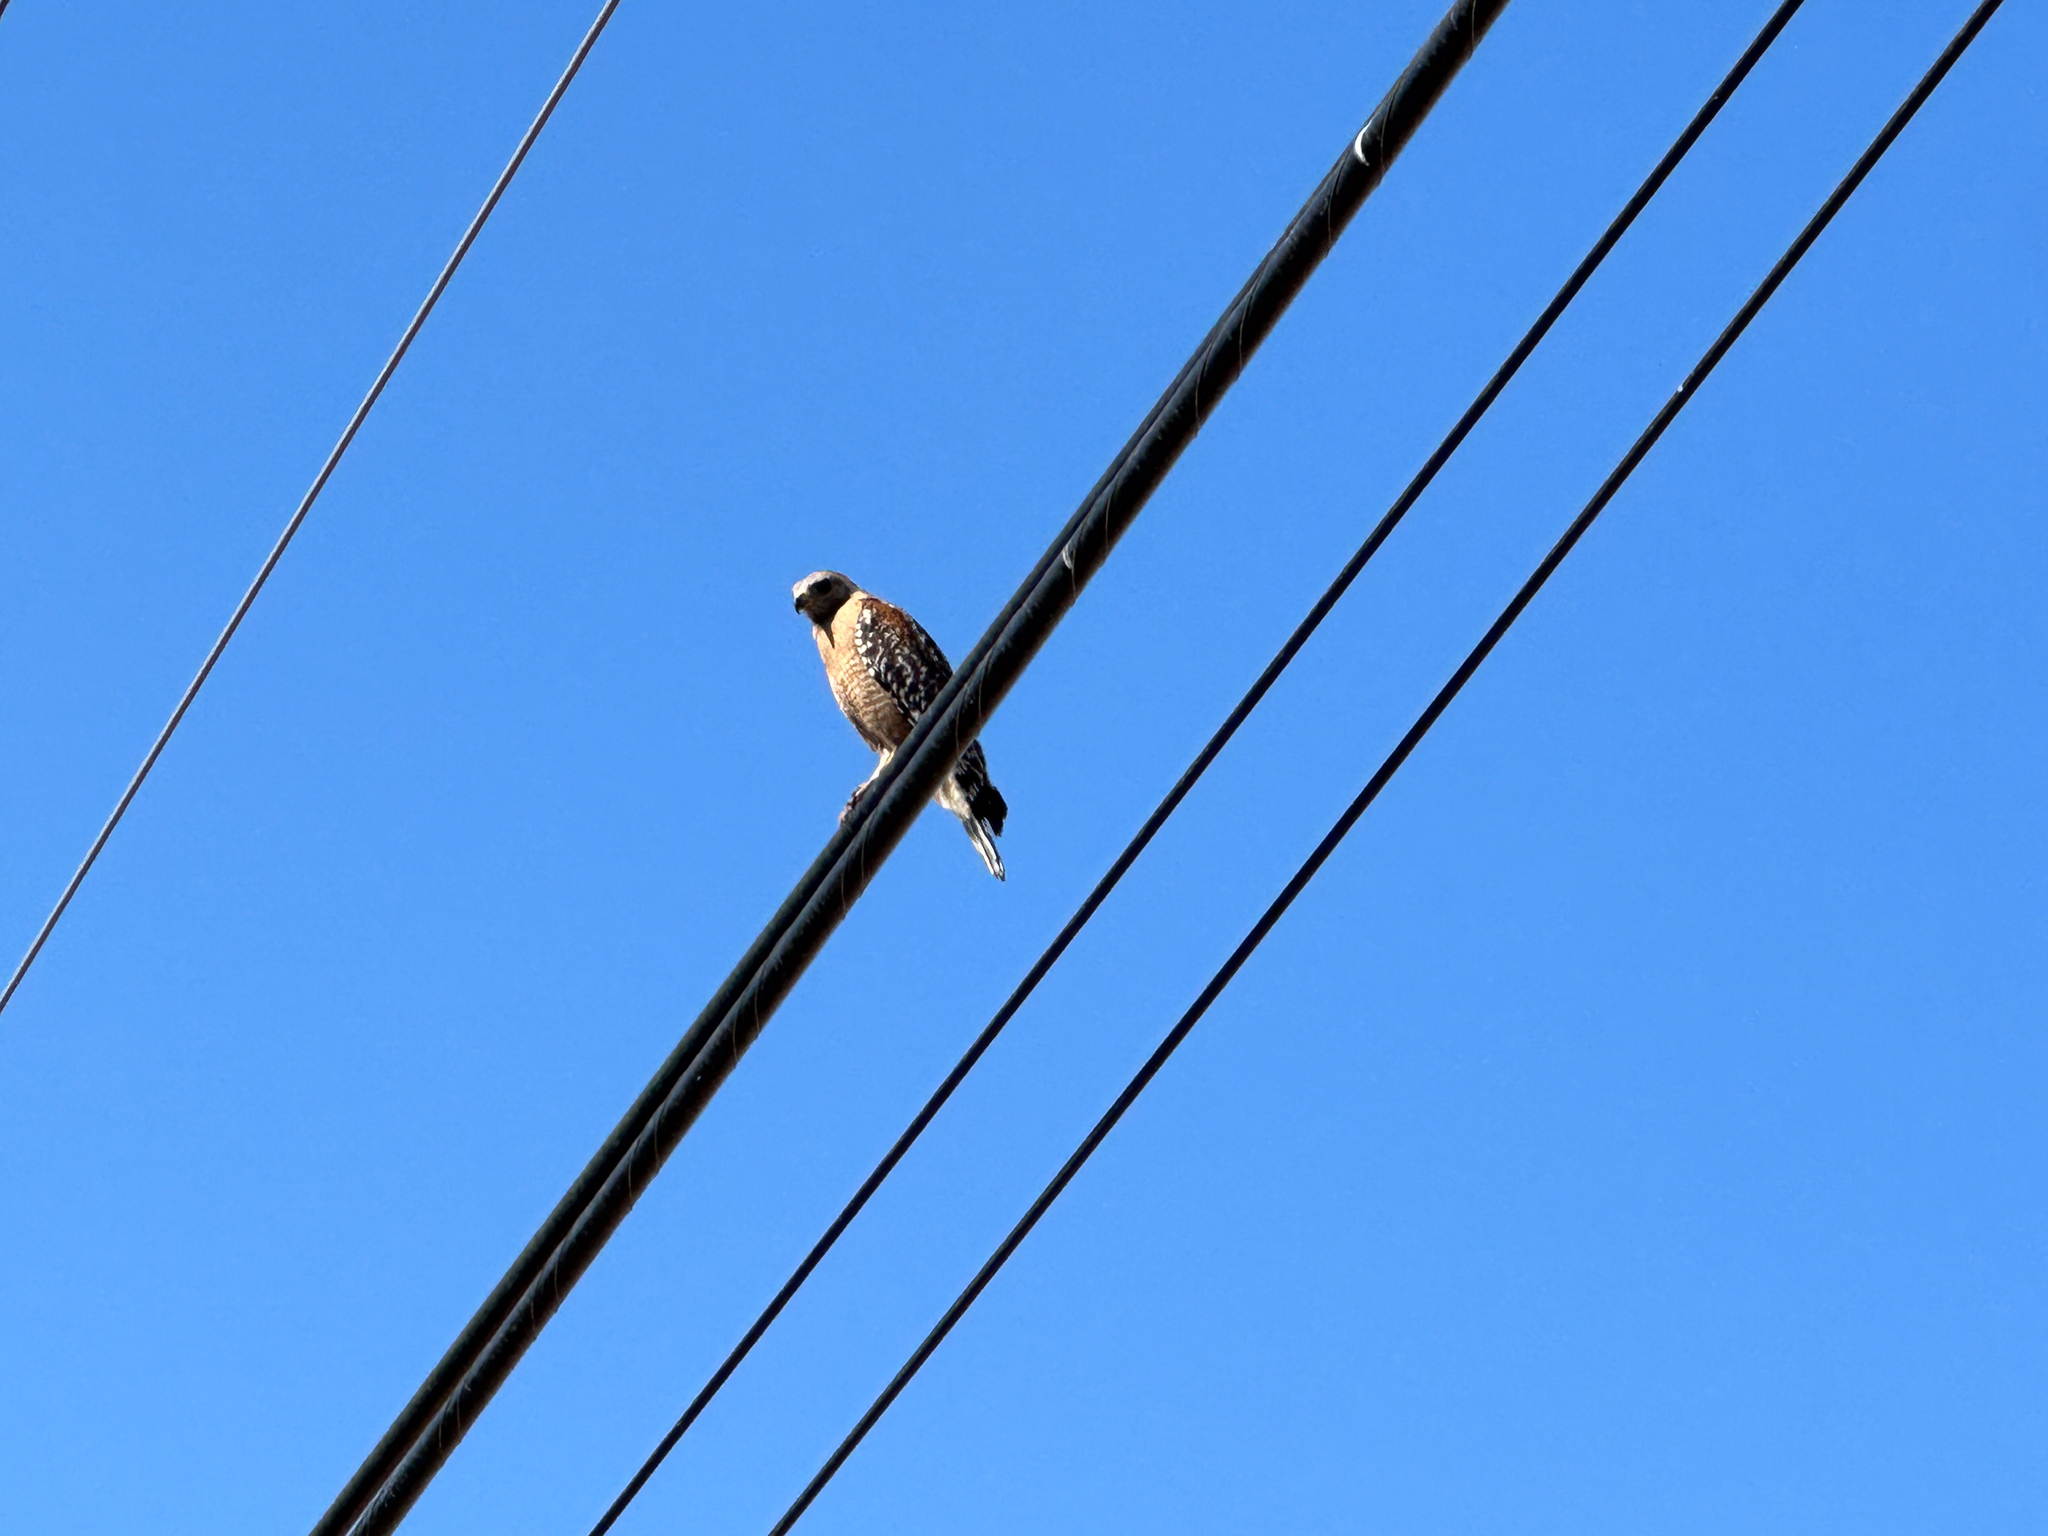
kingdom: Animalia
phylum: Chordata
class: Aves
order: Accipitriformes
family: Accipitridae
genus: Buteo
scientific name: Buteo lineatus
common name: Red-shouldered hawk
